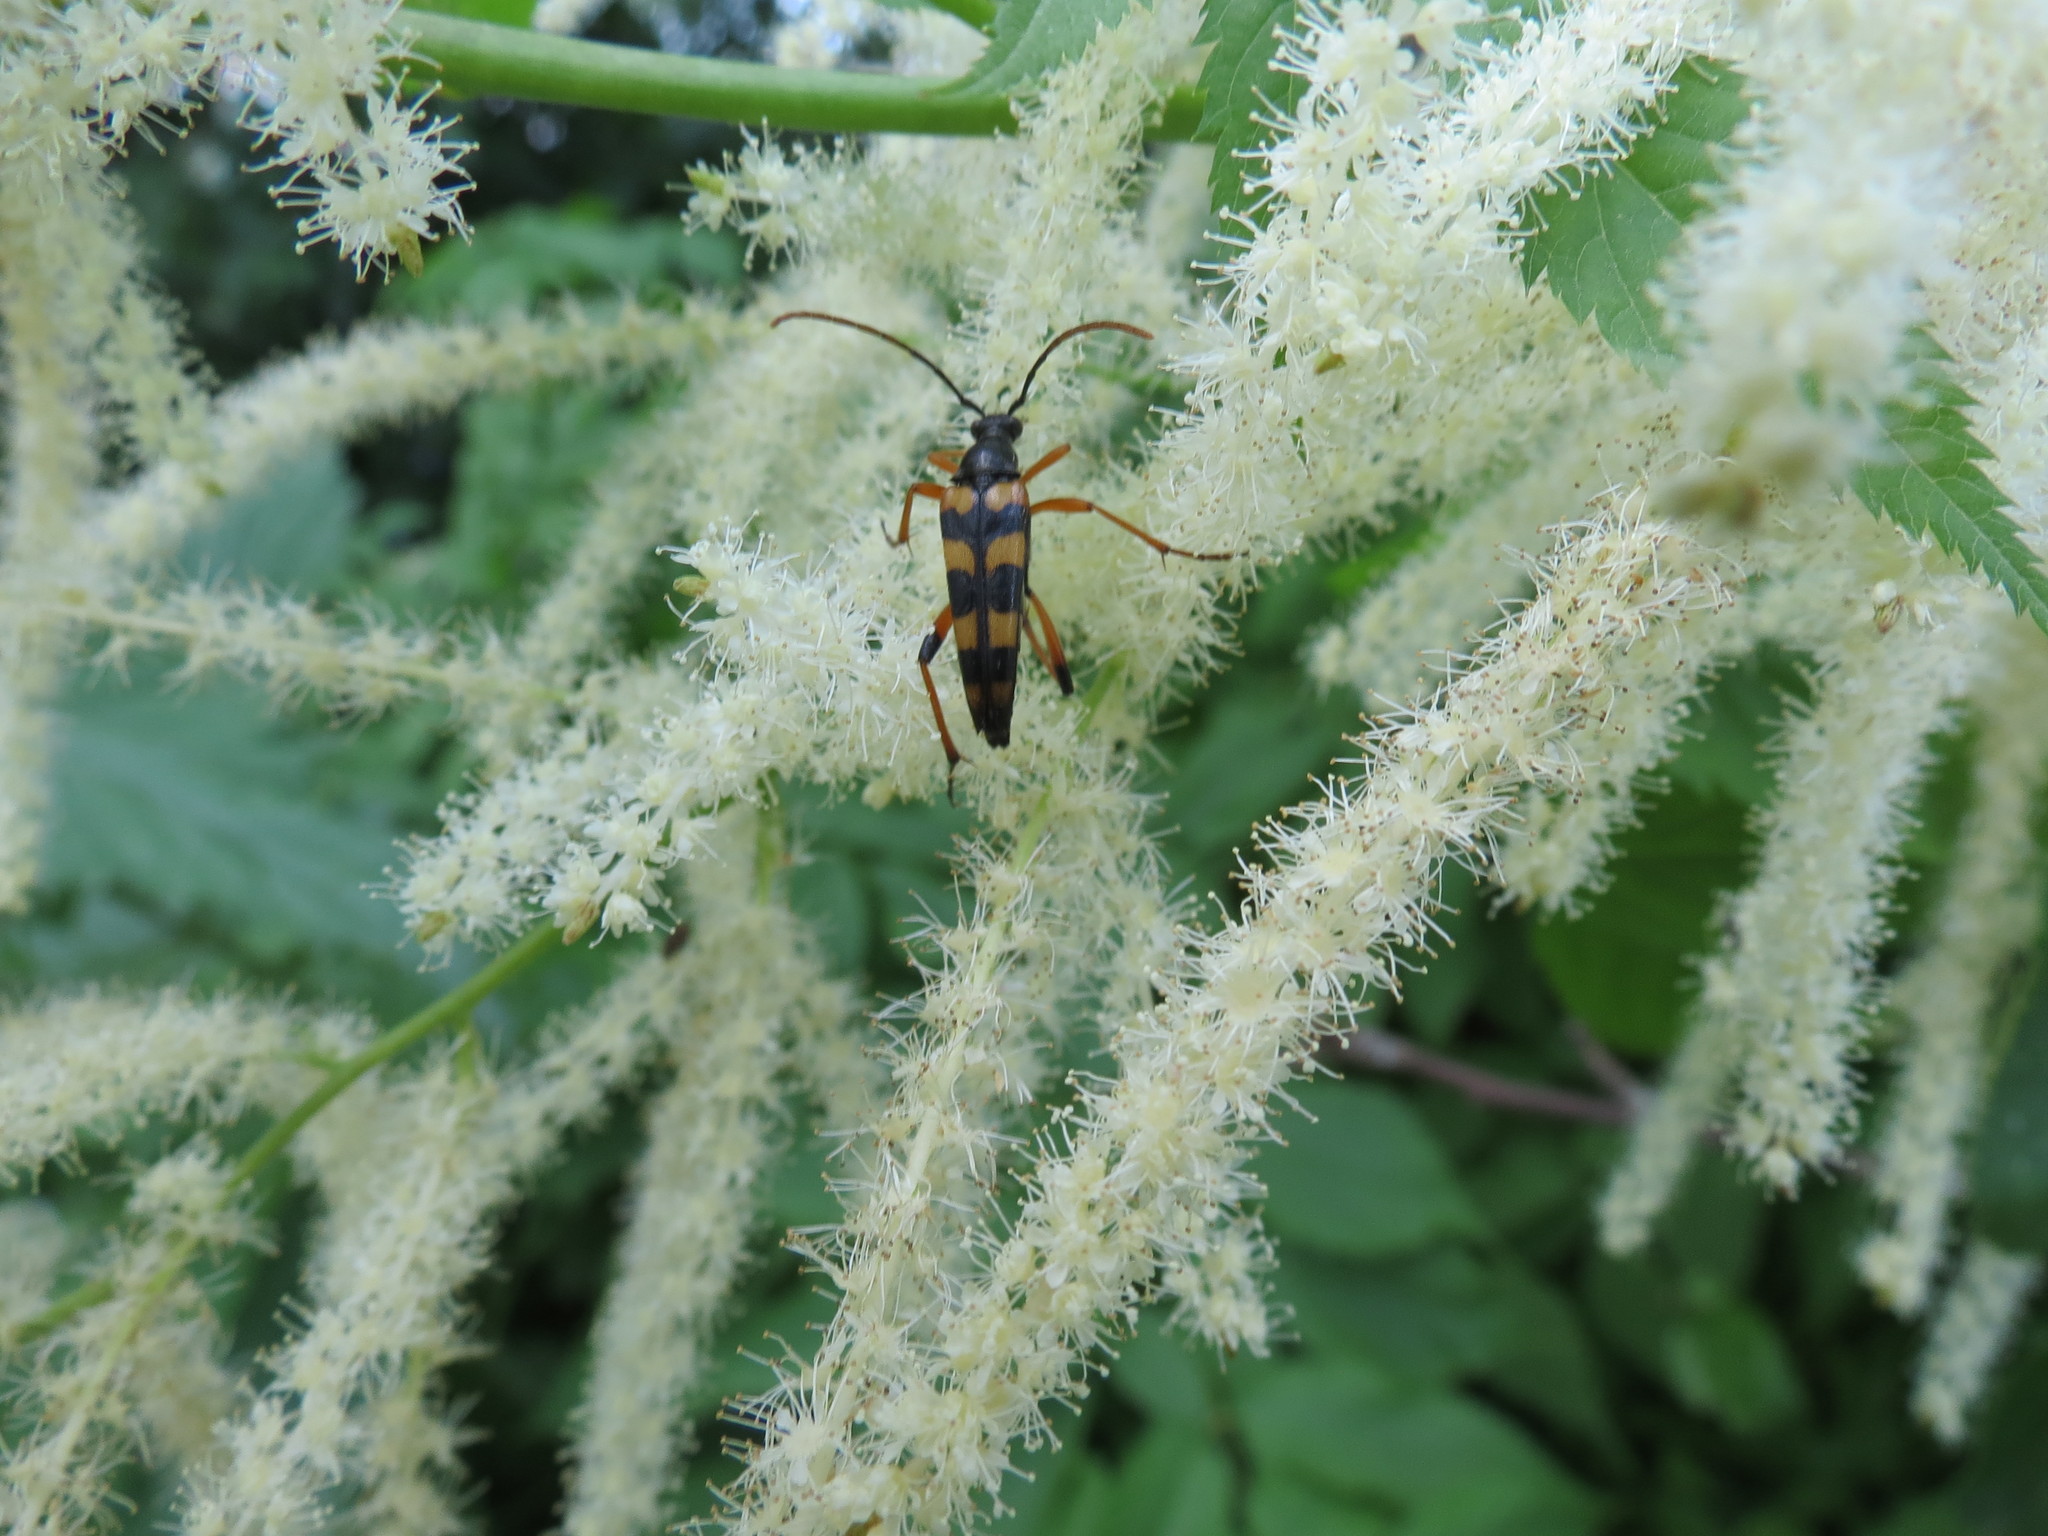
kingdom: Animalia
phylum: Arthropoda
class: Insecta
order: Coleoptera
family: Cerambycidae
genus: Strangalia
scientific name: Strangalia attenuata
